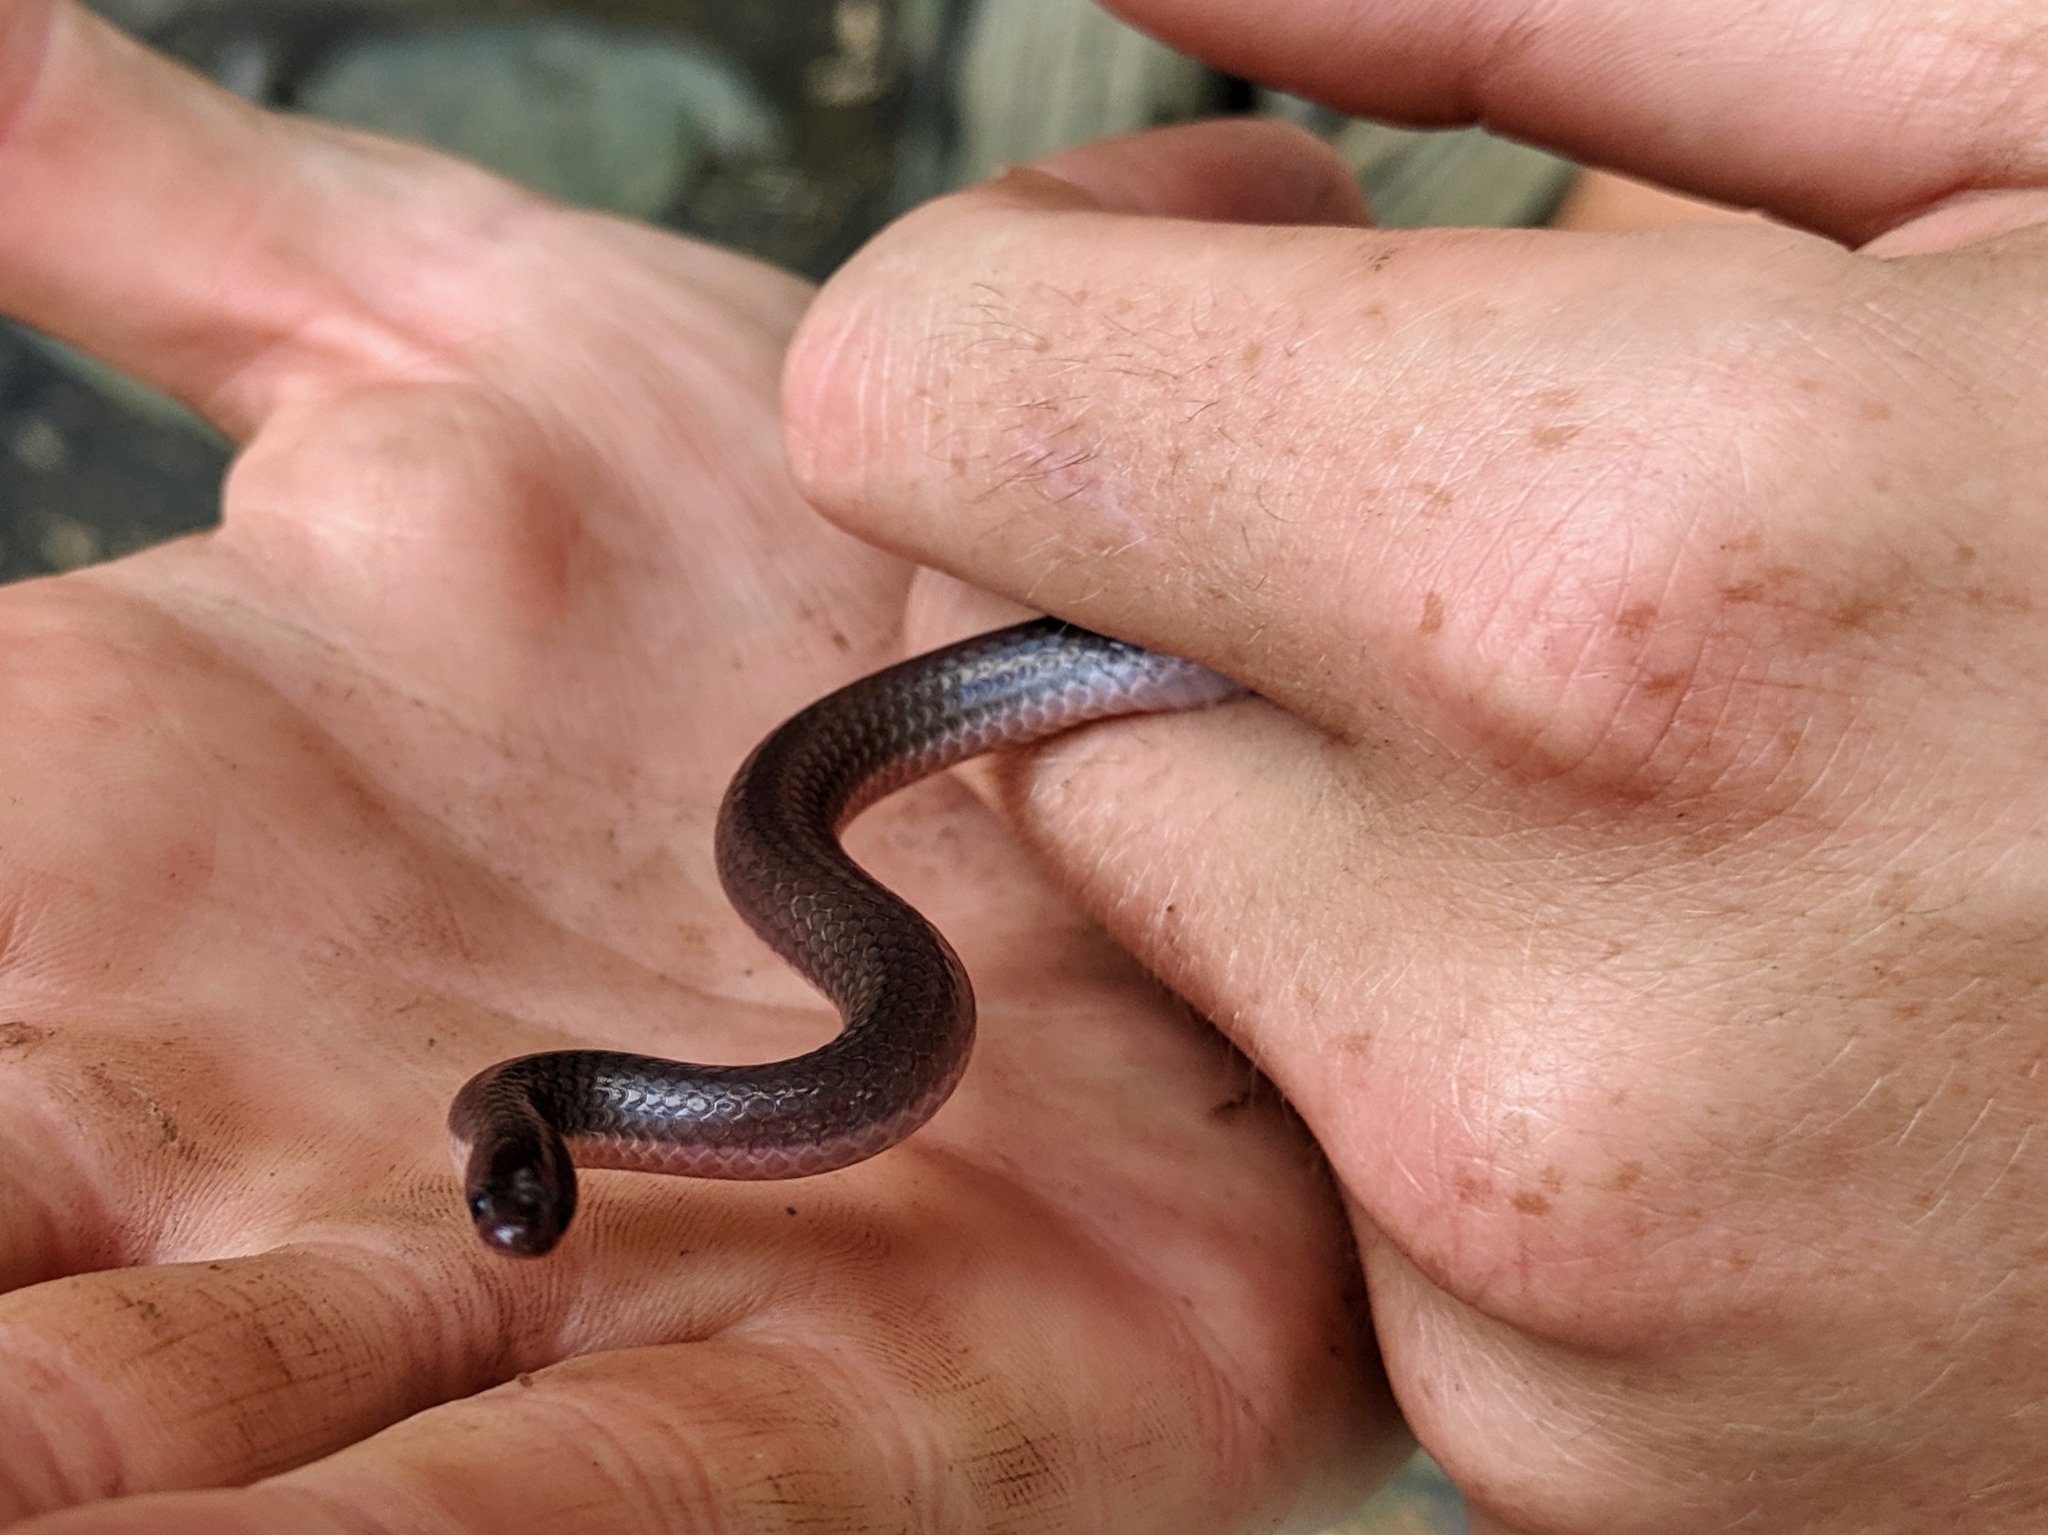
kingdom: Animalia
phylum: Chordata
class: Squamata
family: Colubridae
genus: Carphophis
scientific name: Carphophis amoenus
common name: Eastern worm snake
